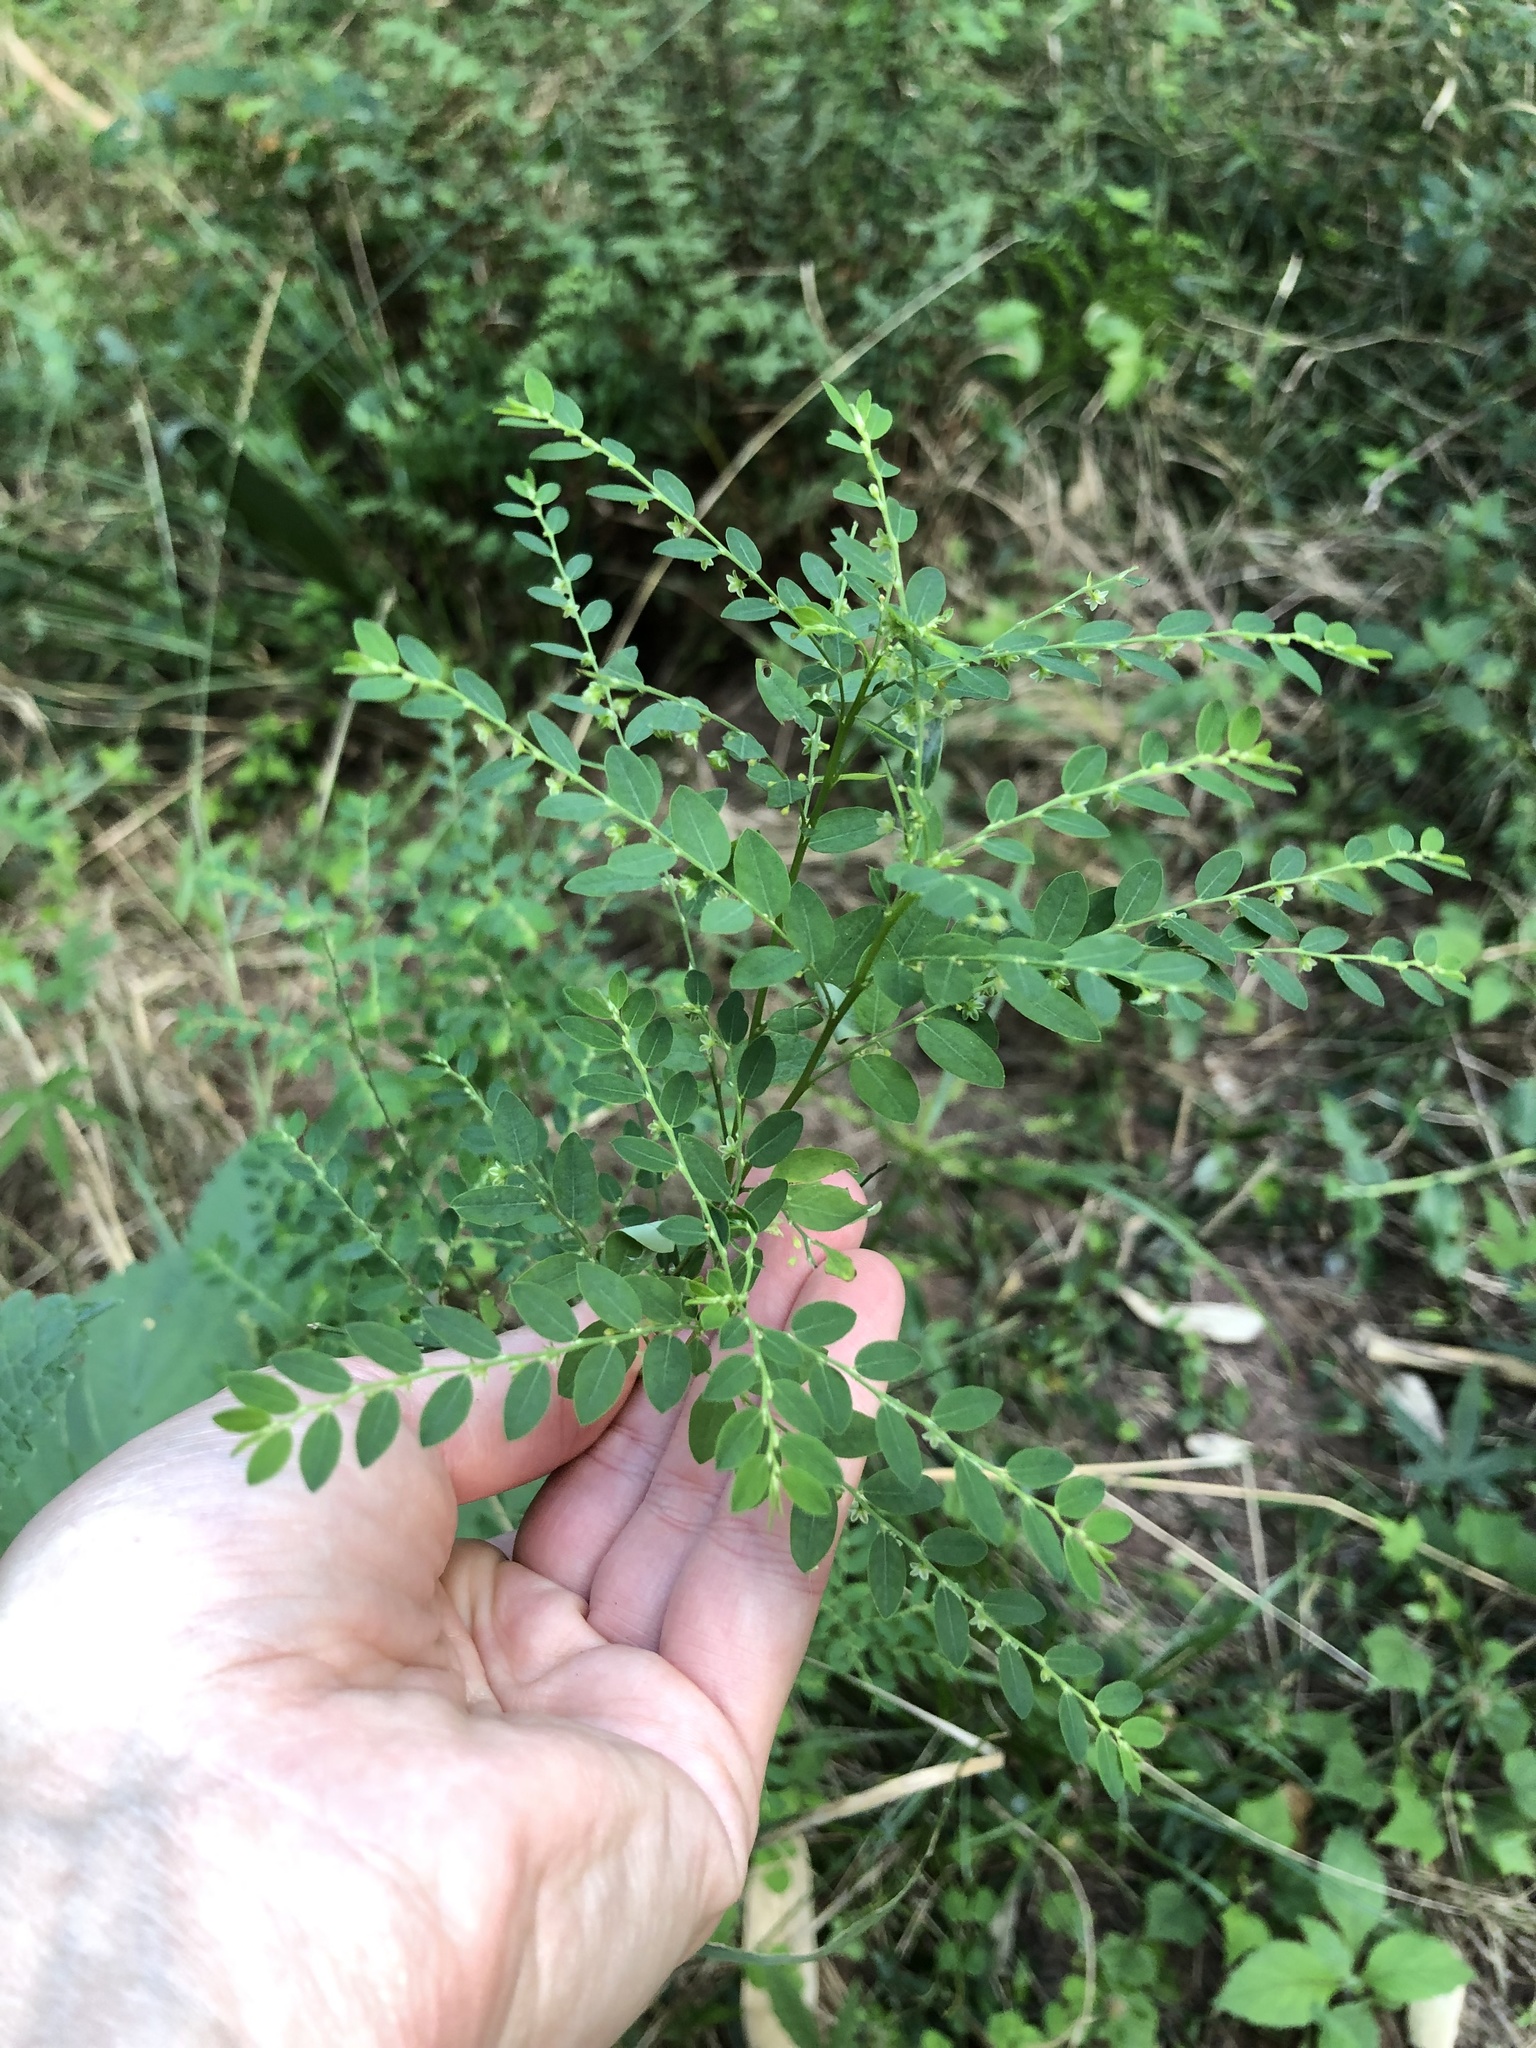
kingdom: Plantae
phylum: Tracheophyta
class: Magnoliopsida
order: Malpighiales
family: Phyllanthaceae
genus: Phyllanthus
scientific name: Phyllanthus tenellus
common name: Mascarene island leaf-flower
